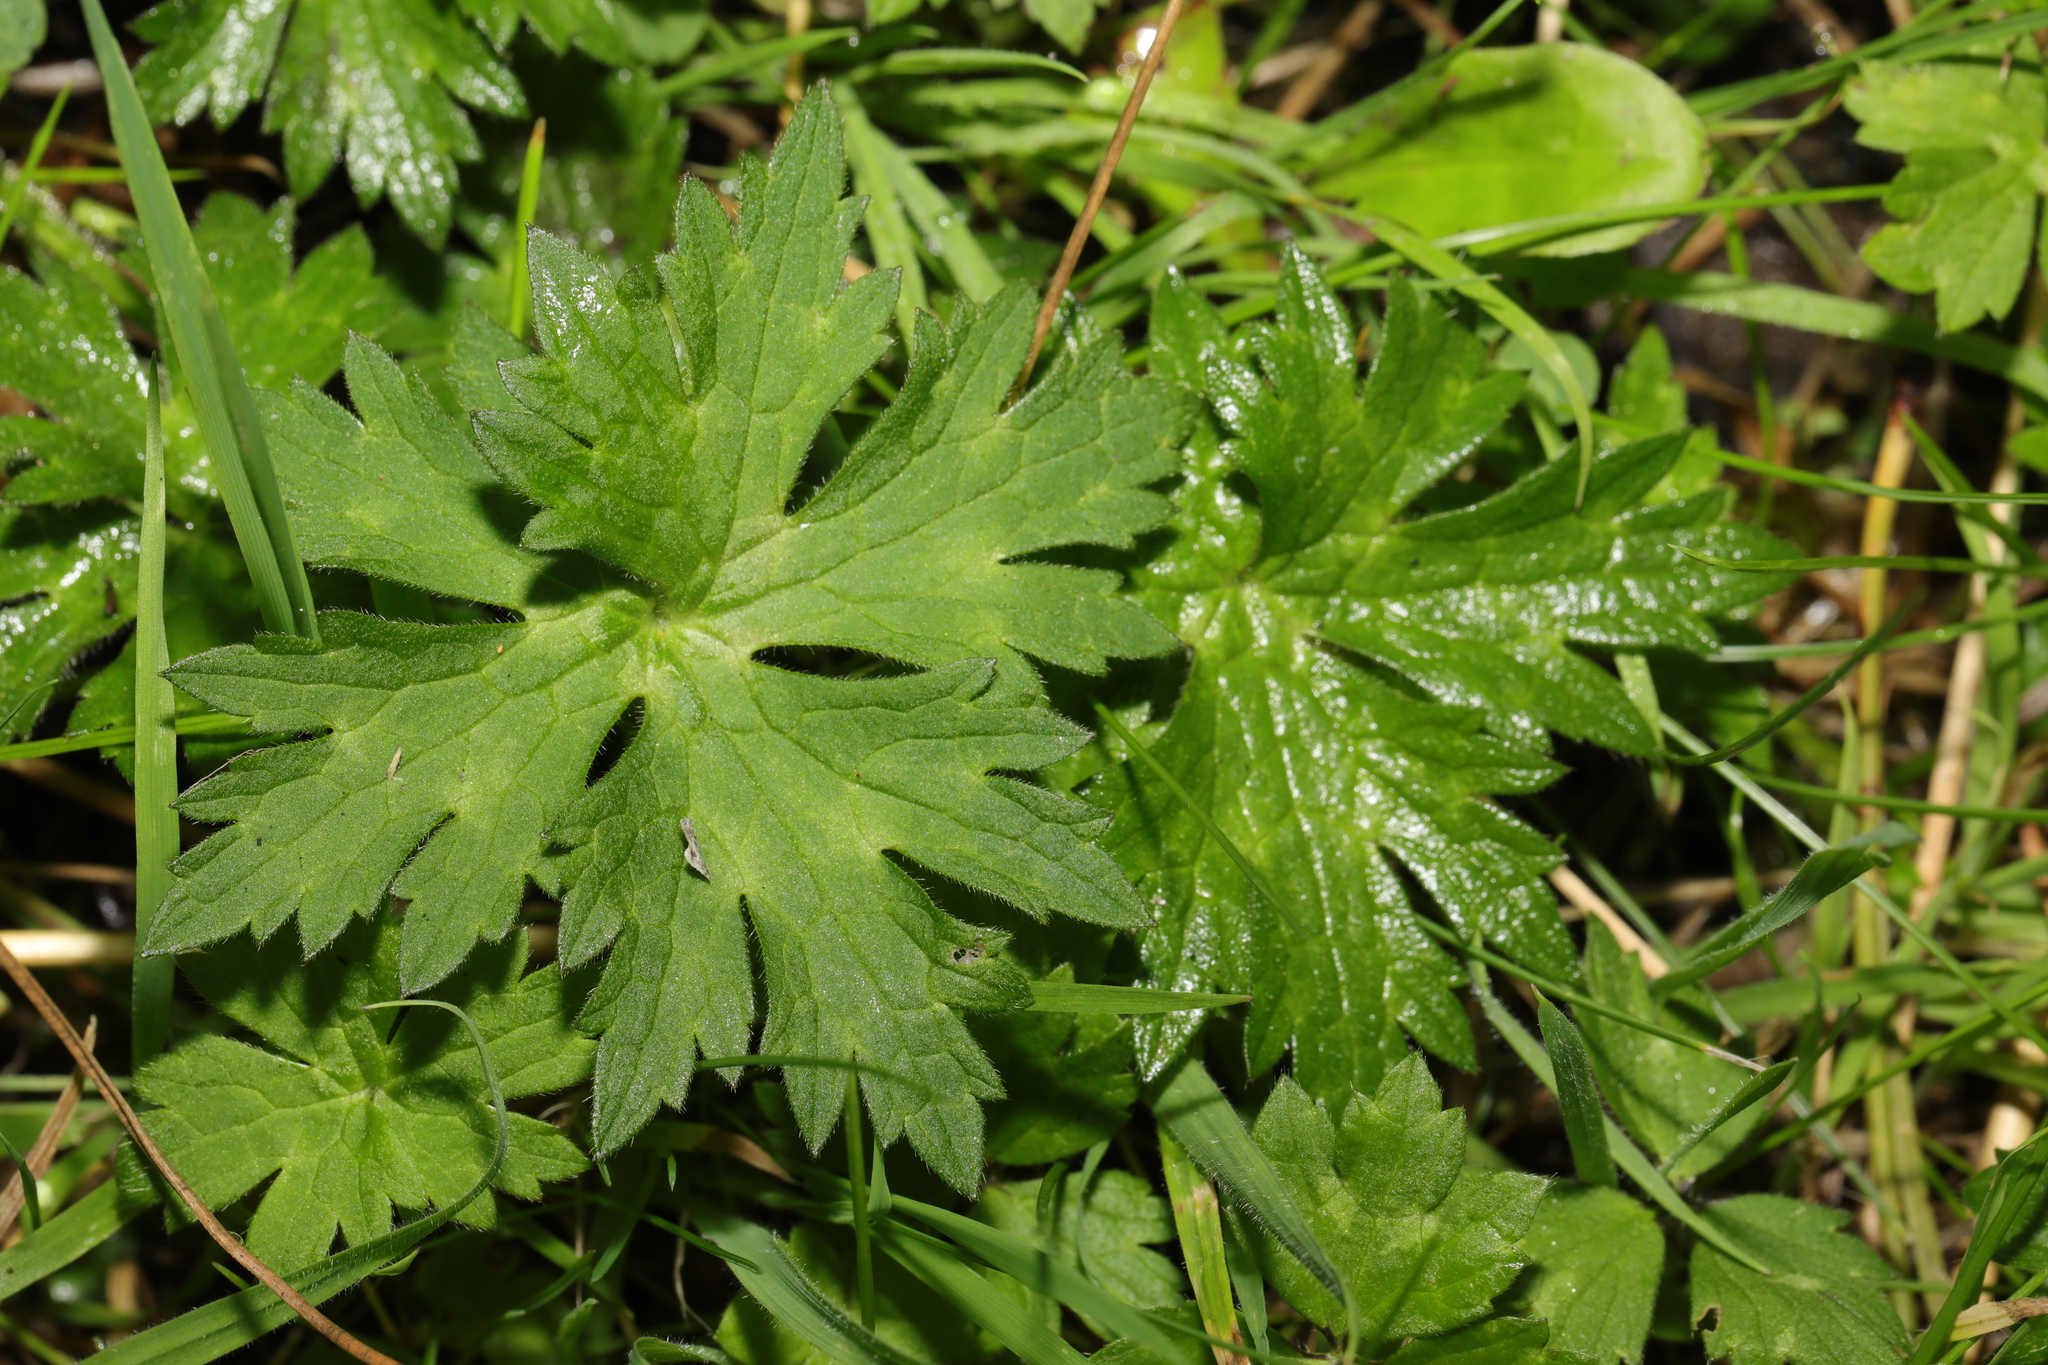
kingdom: Plantae
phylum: Tracheophyta
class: Magnoliopsida
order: Ranunculales
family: Ranunculaceae
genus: Ranunculus
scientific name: Ranunculus acris
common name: Meadow buttercup
